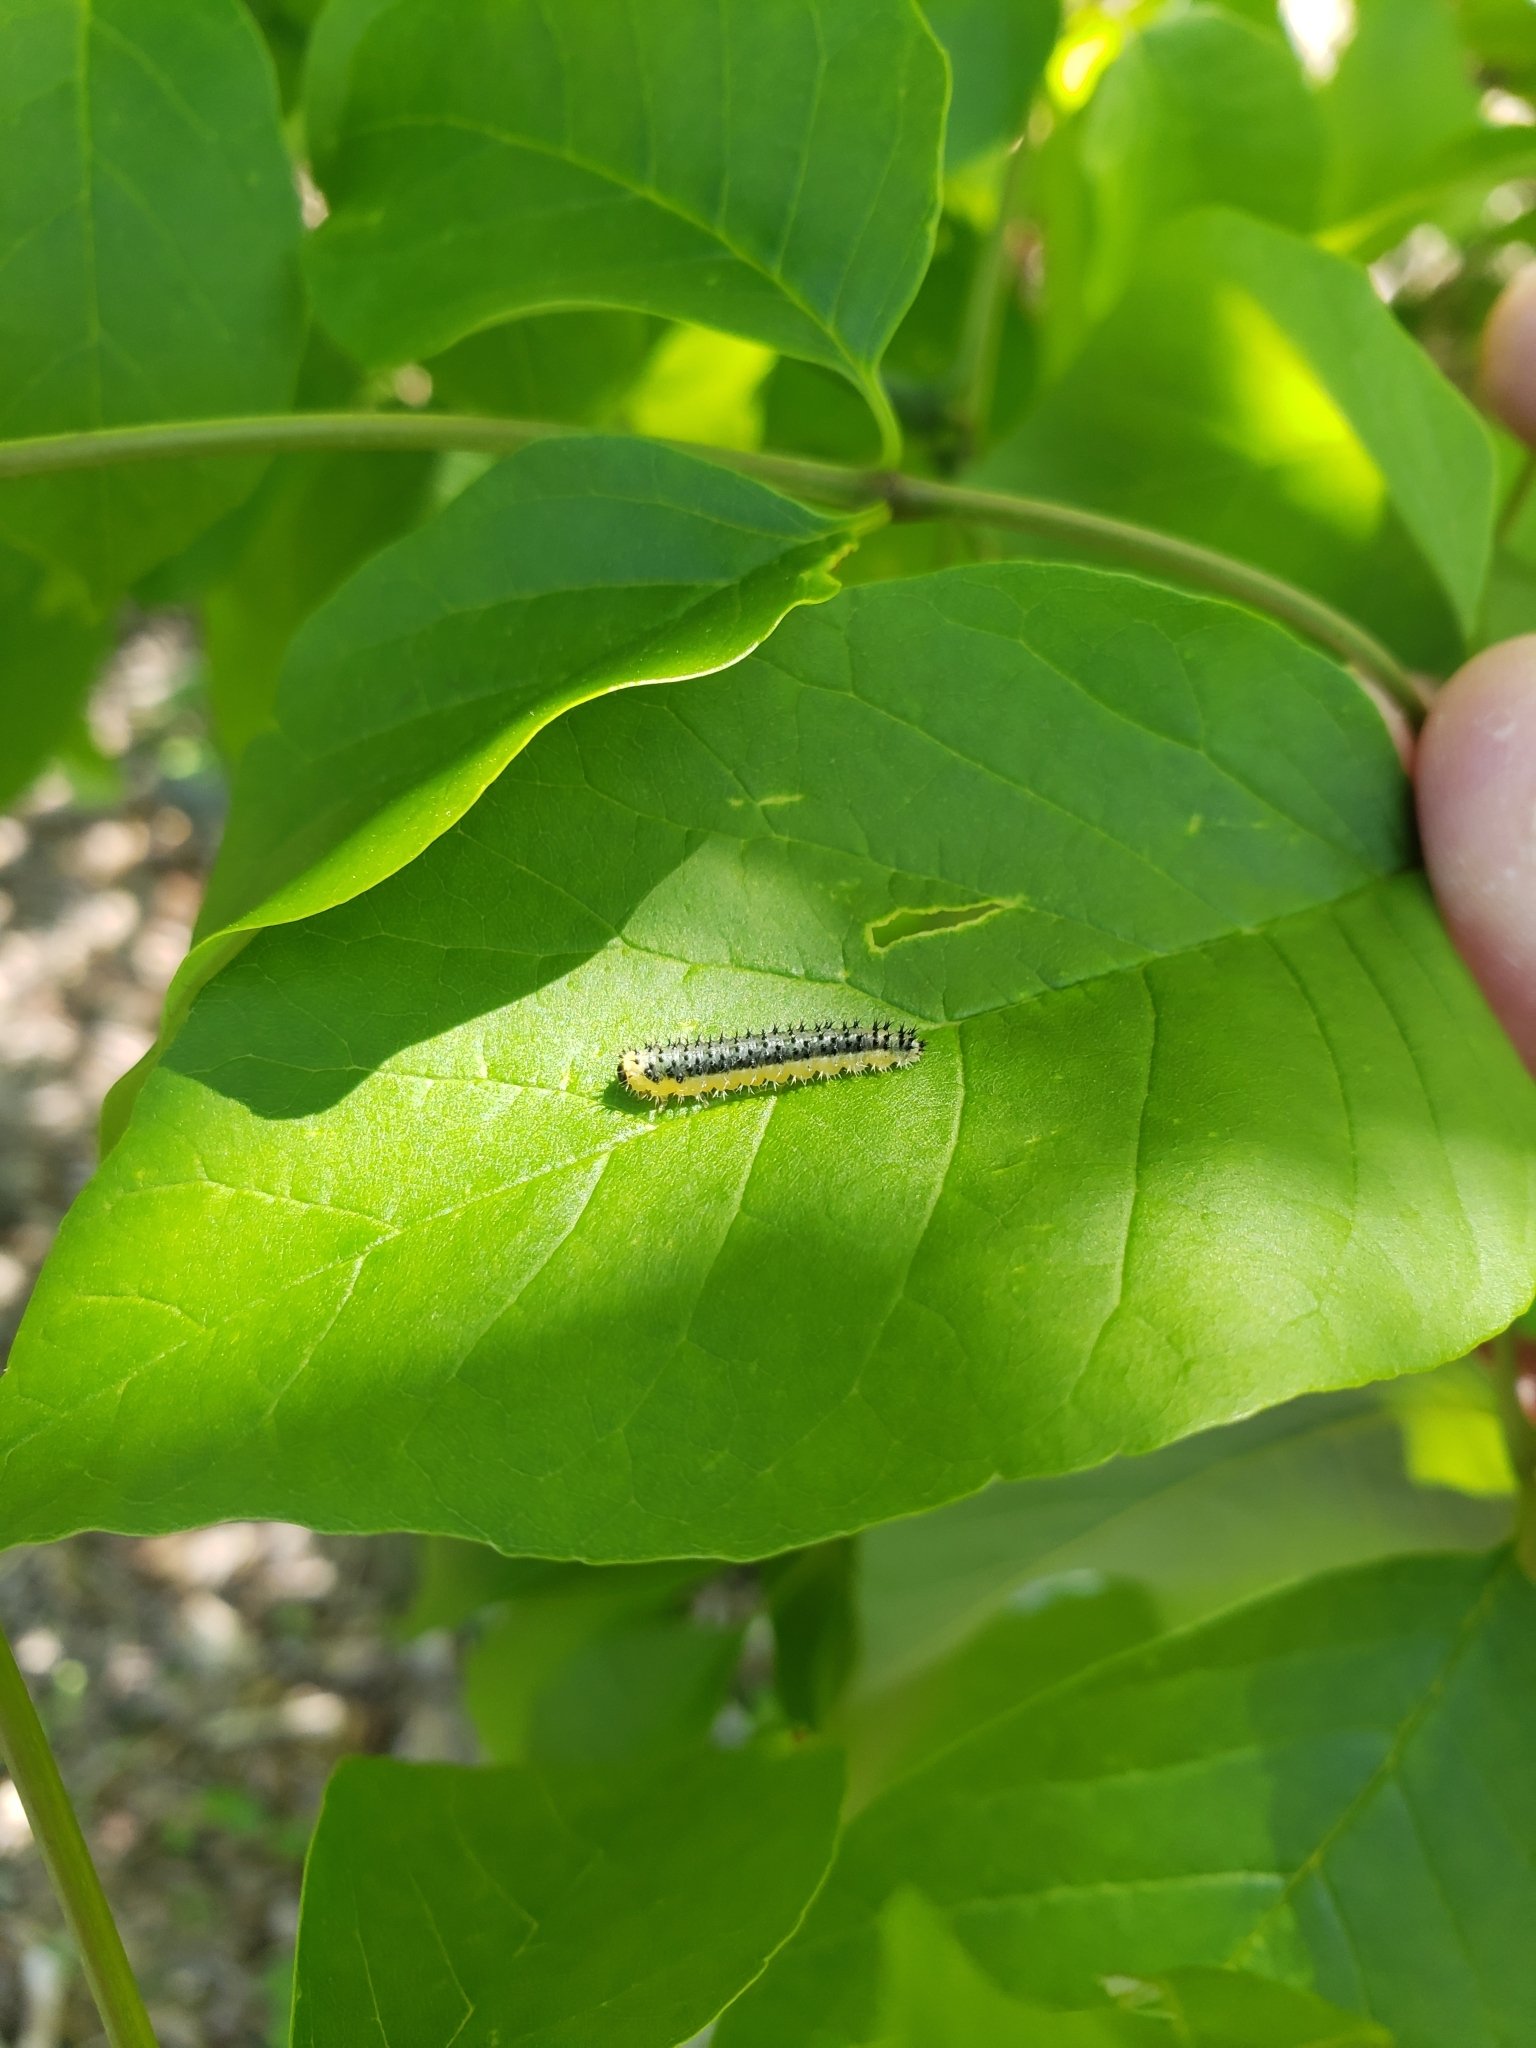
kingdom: Animalia
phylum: Arthropoda
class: Insecta
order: Hymenoptera
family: Tenthredinidae
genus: Eupareophora
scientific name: Eupareophora parca
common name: Sawfly
